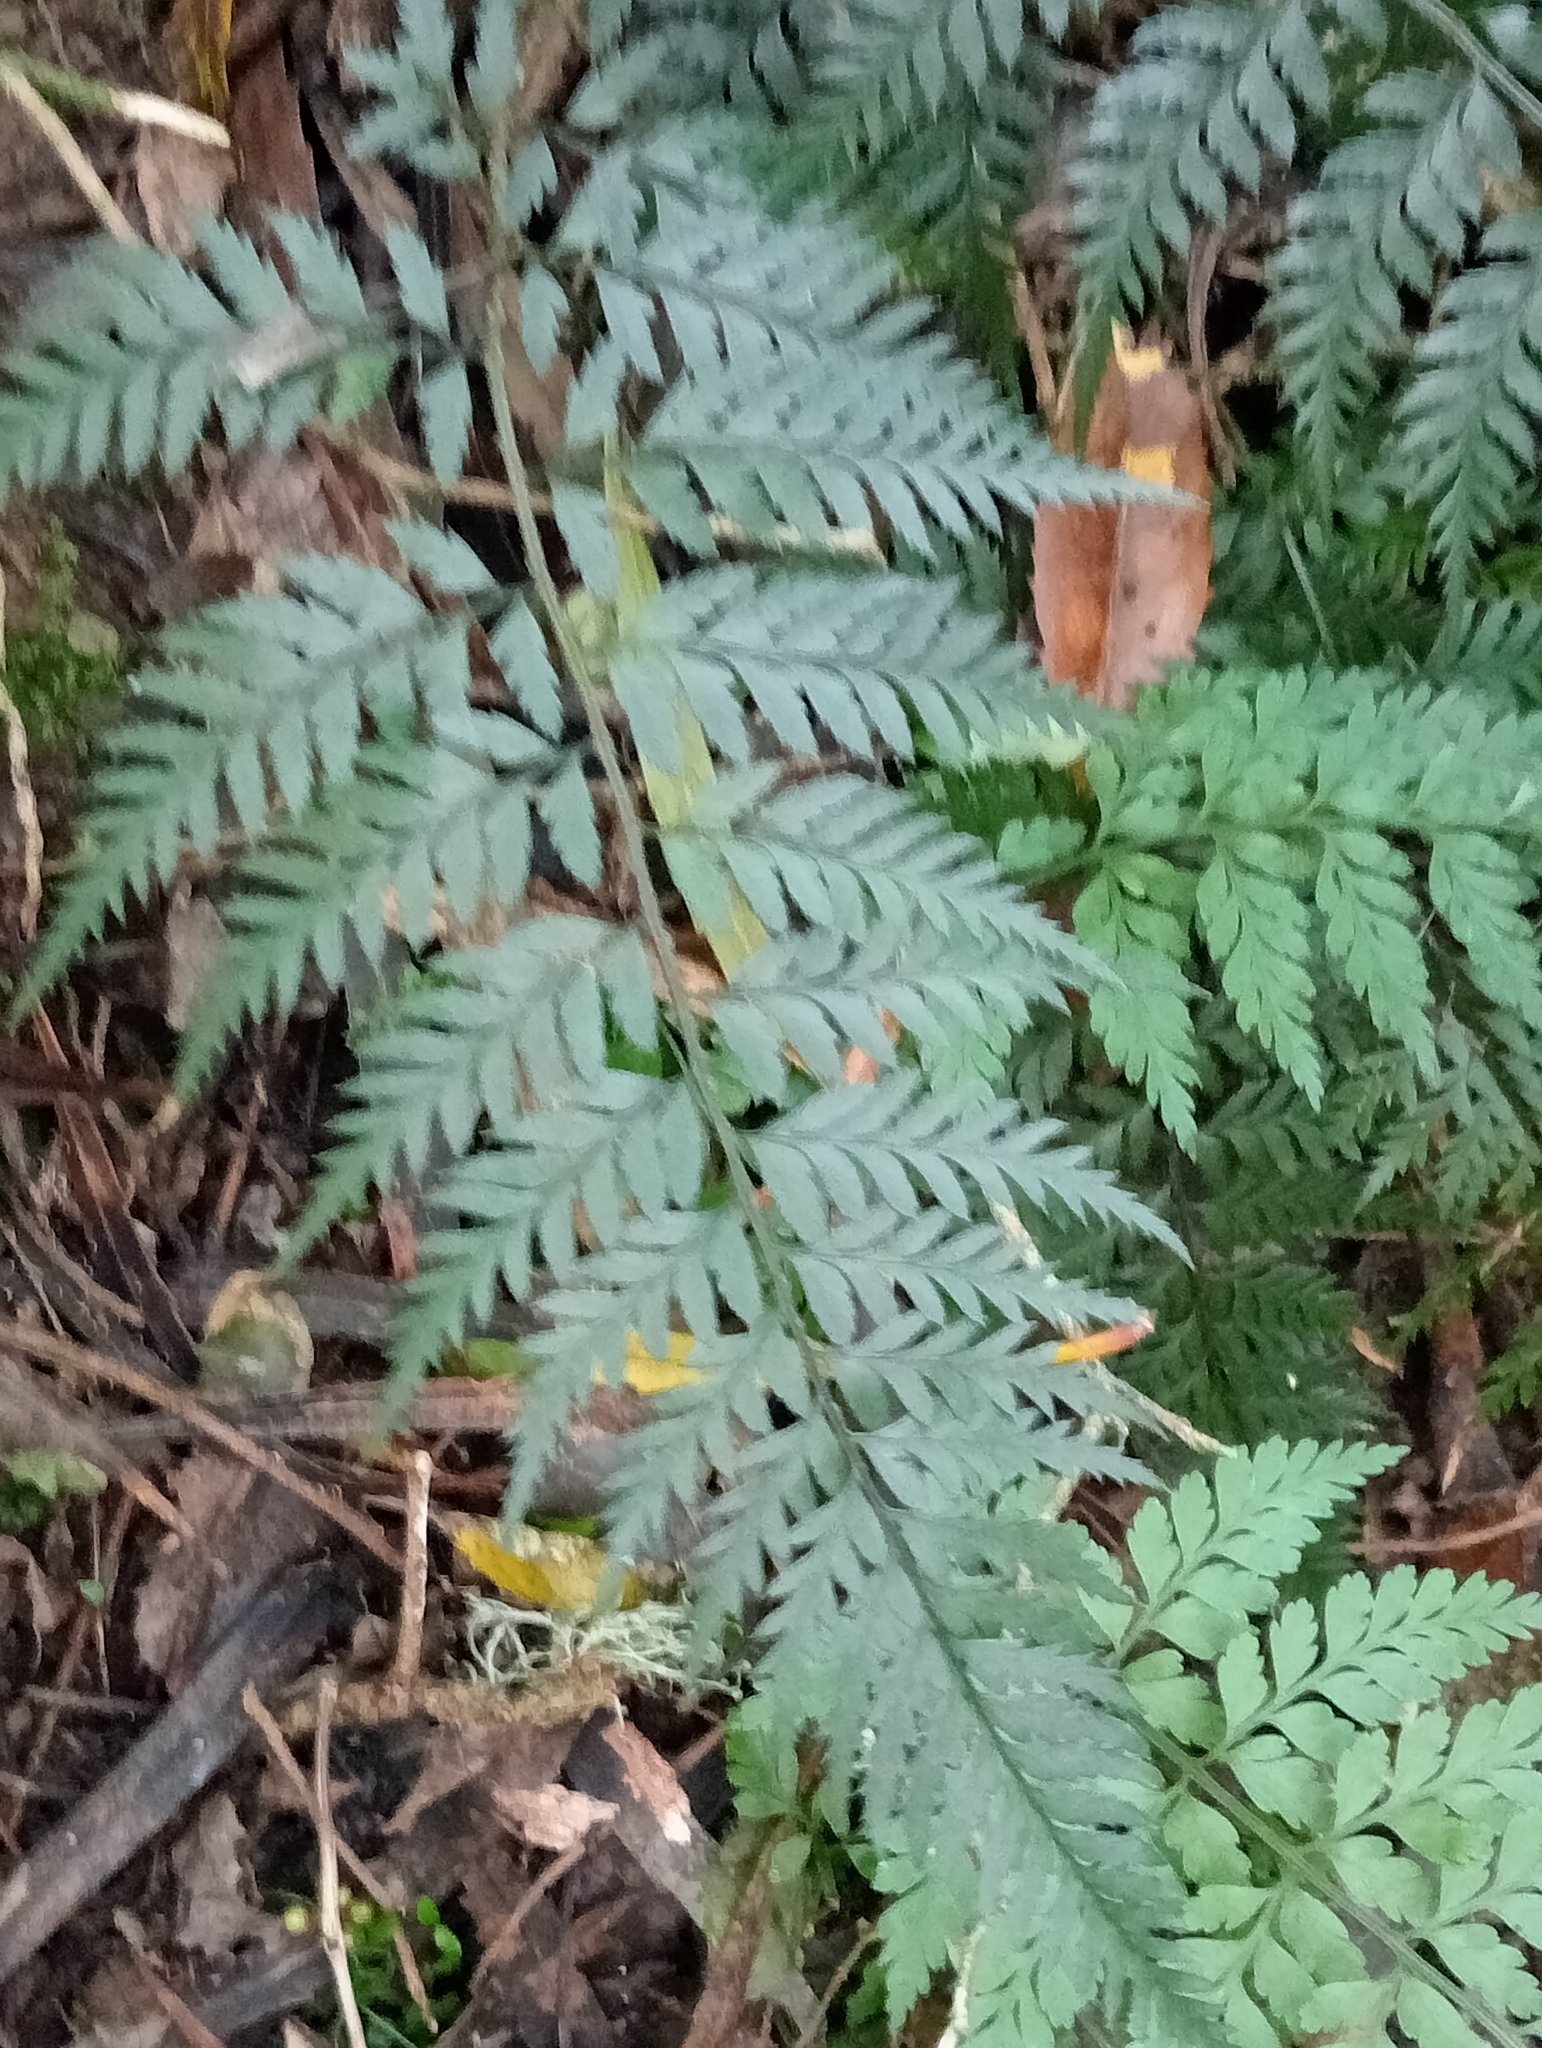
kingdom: Plantae
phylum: Tracheophyta
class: Polypodiopsida
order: Polypodiales
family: Dryopteridaceae
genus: Polystichum
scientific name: Polystichum oculatum
